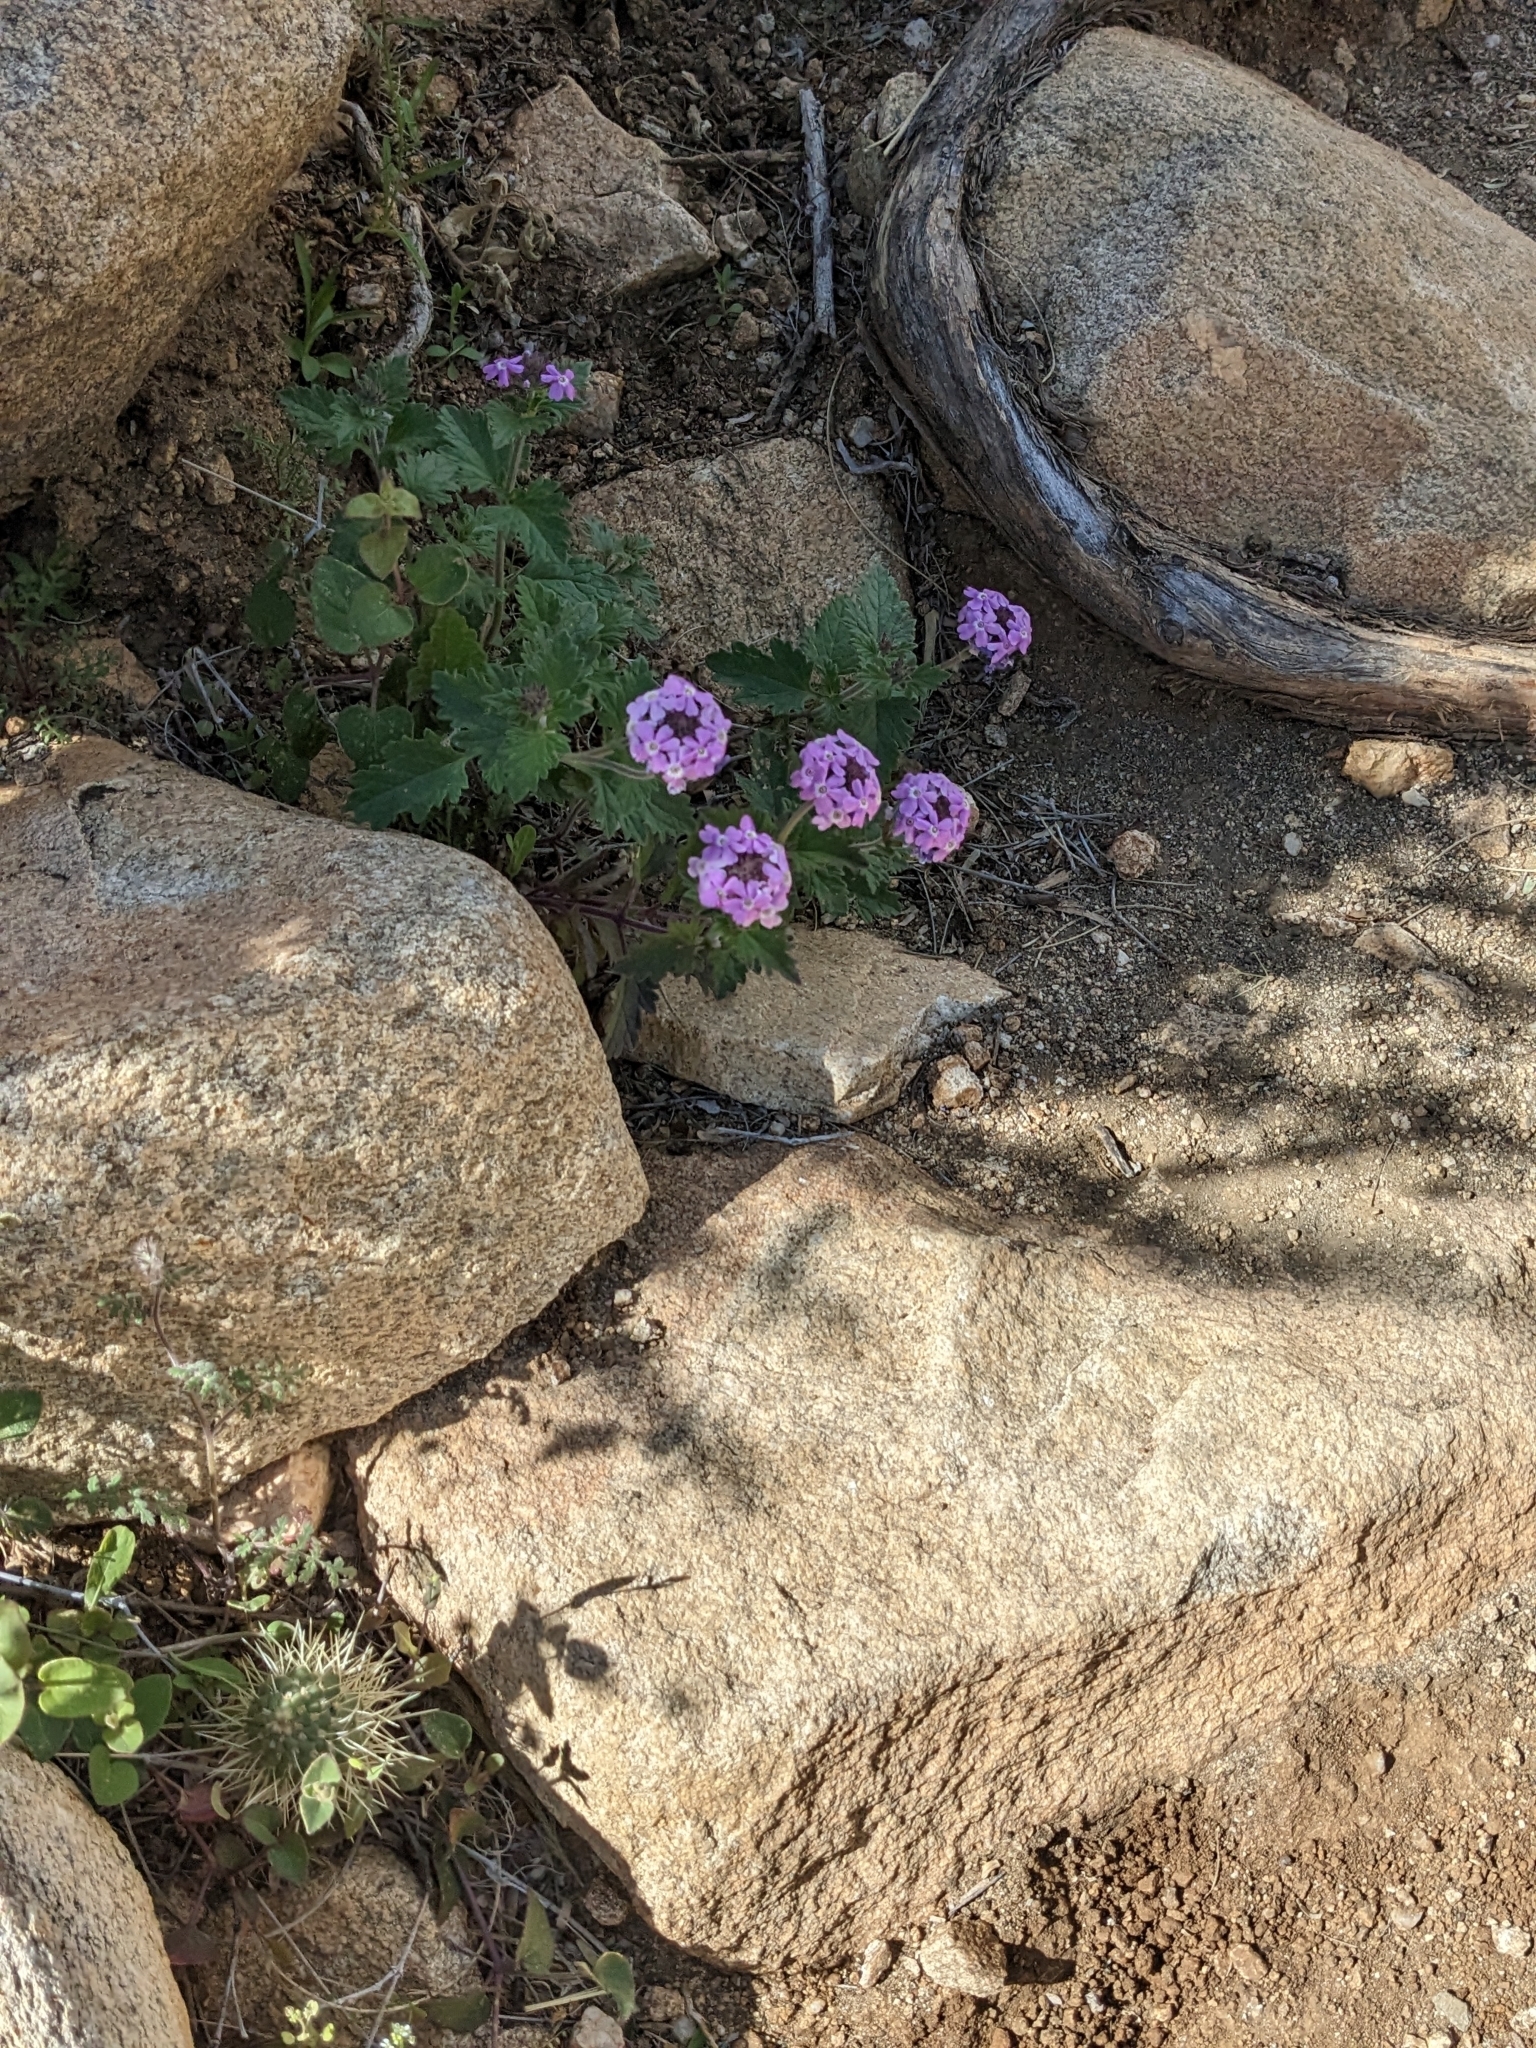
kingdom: Plantae
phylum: Tracheophyta
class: Magnoliopsida
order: Lamiales
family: Verbenaceae
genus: Verbena
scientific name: Verbena gooddingii
